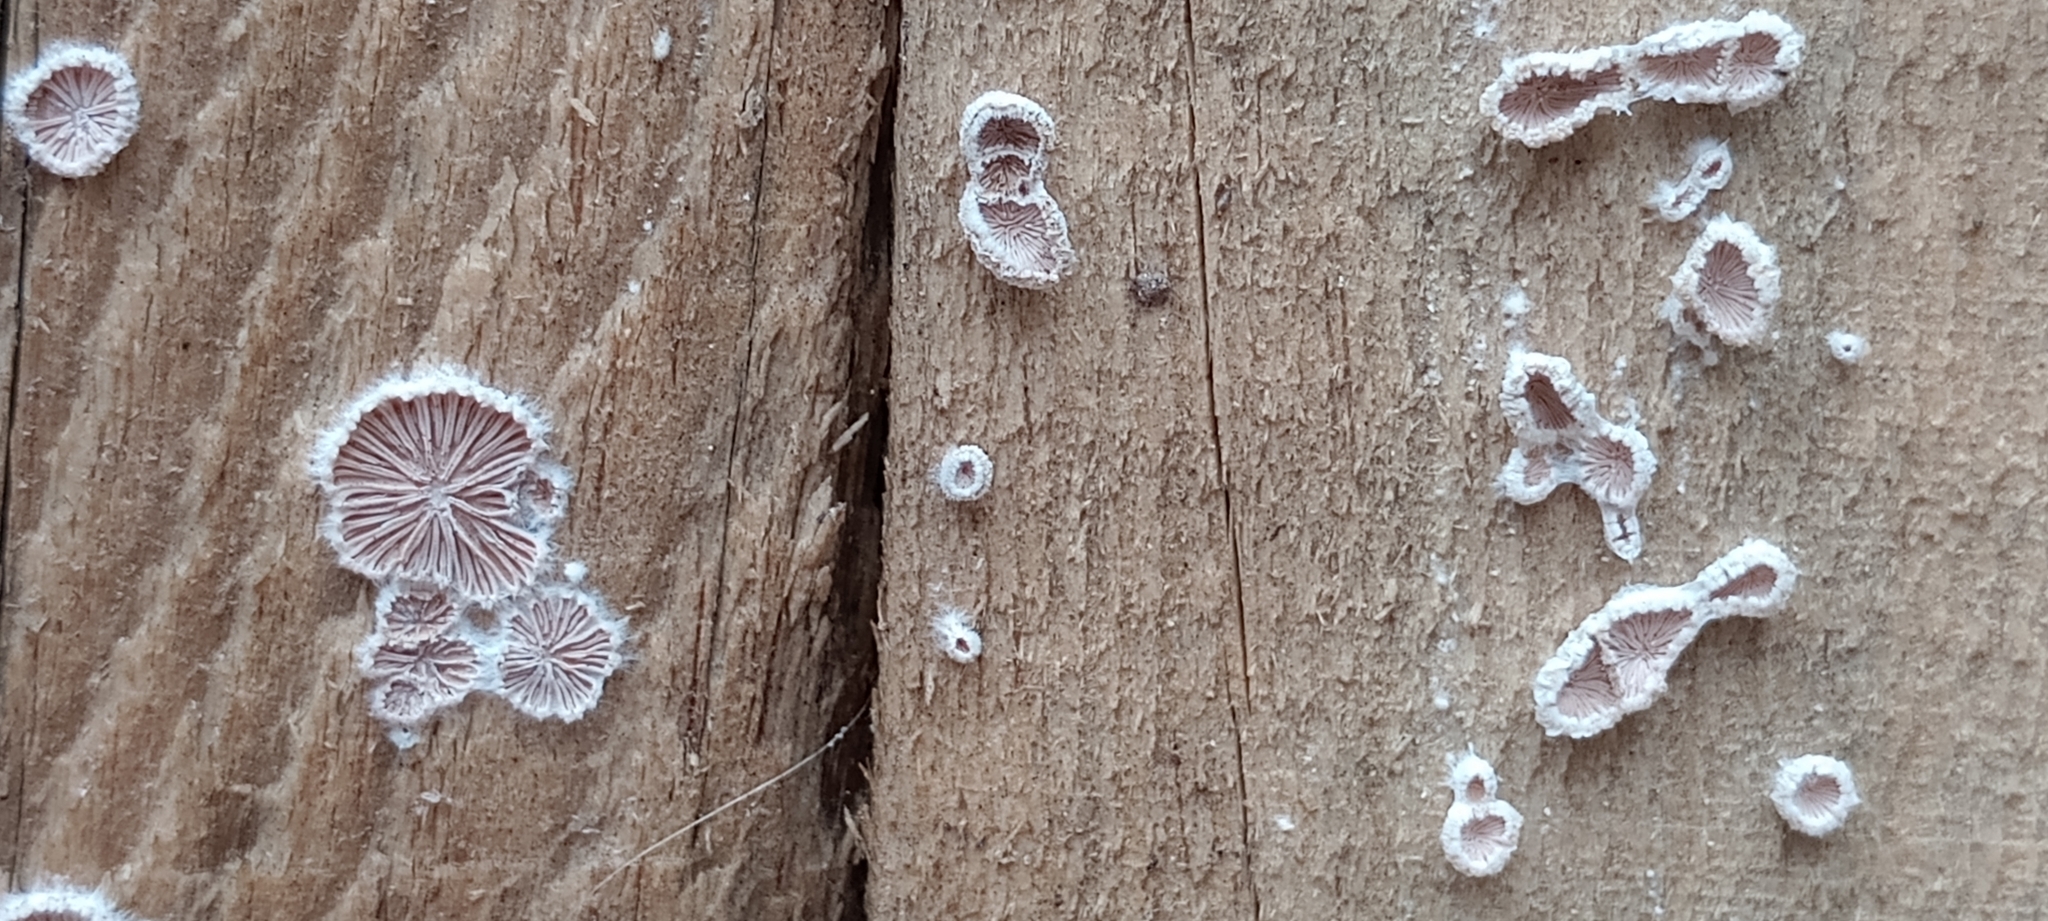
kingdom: Fungi
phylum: Basidiomycota
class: Agaricomycetes
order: Agaricales
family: Schizophyllaceae
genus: Schizophyllum
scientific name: Schizophyllum commune
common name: Common porecrust
